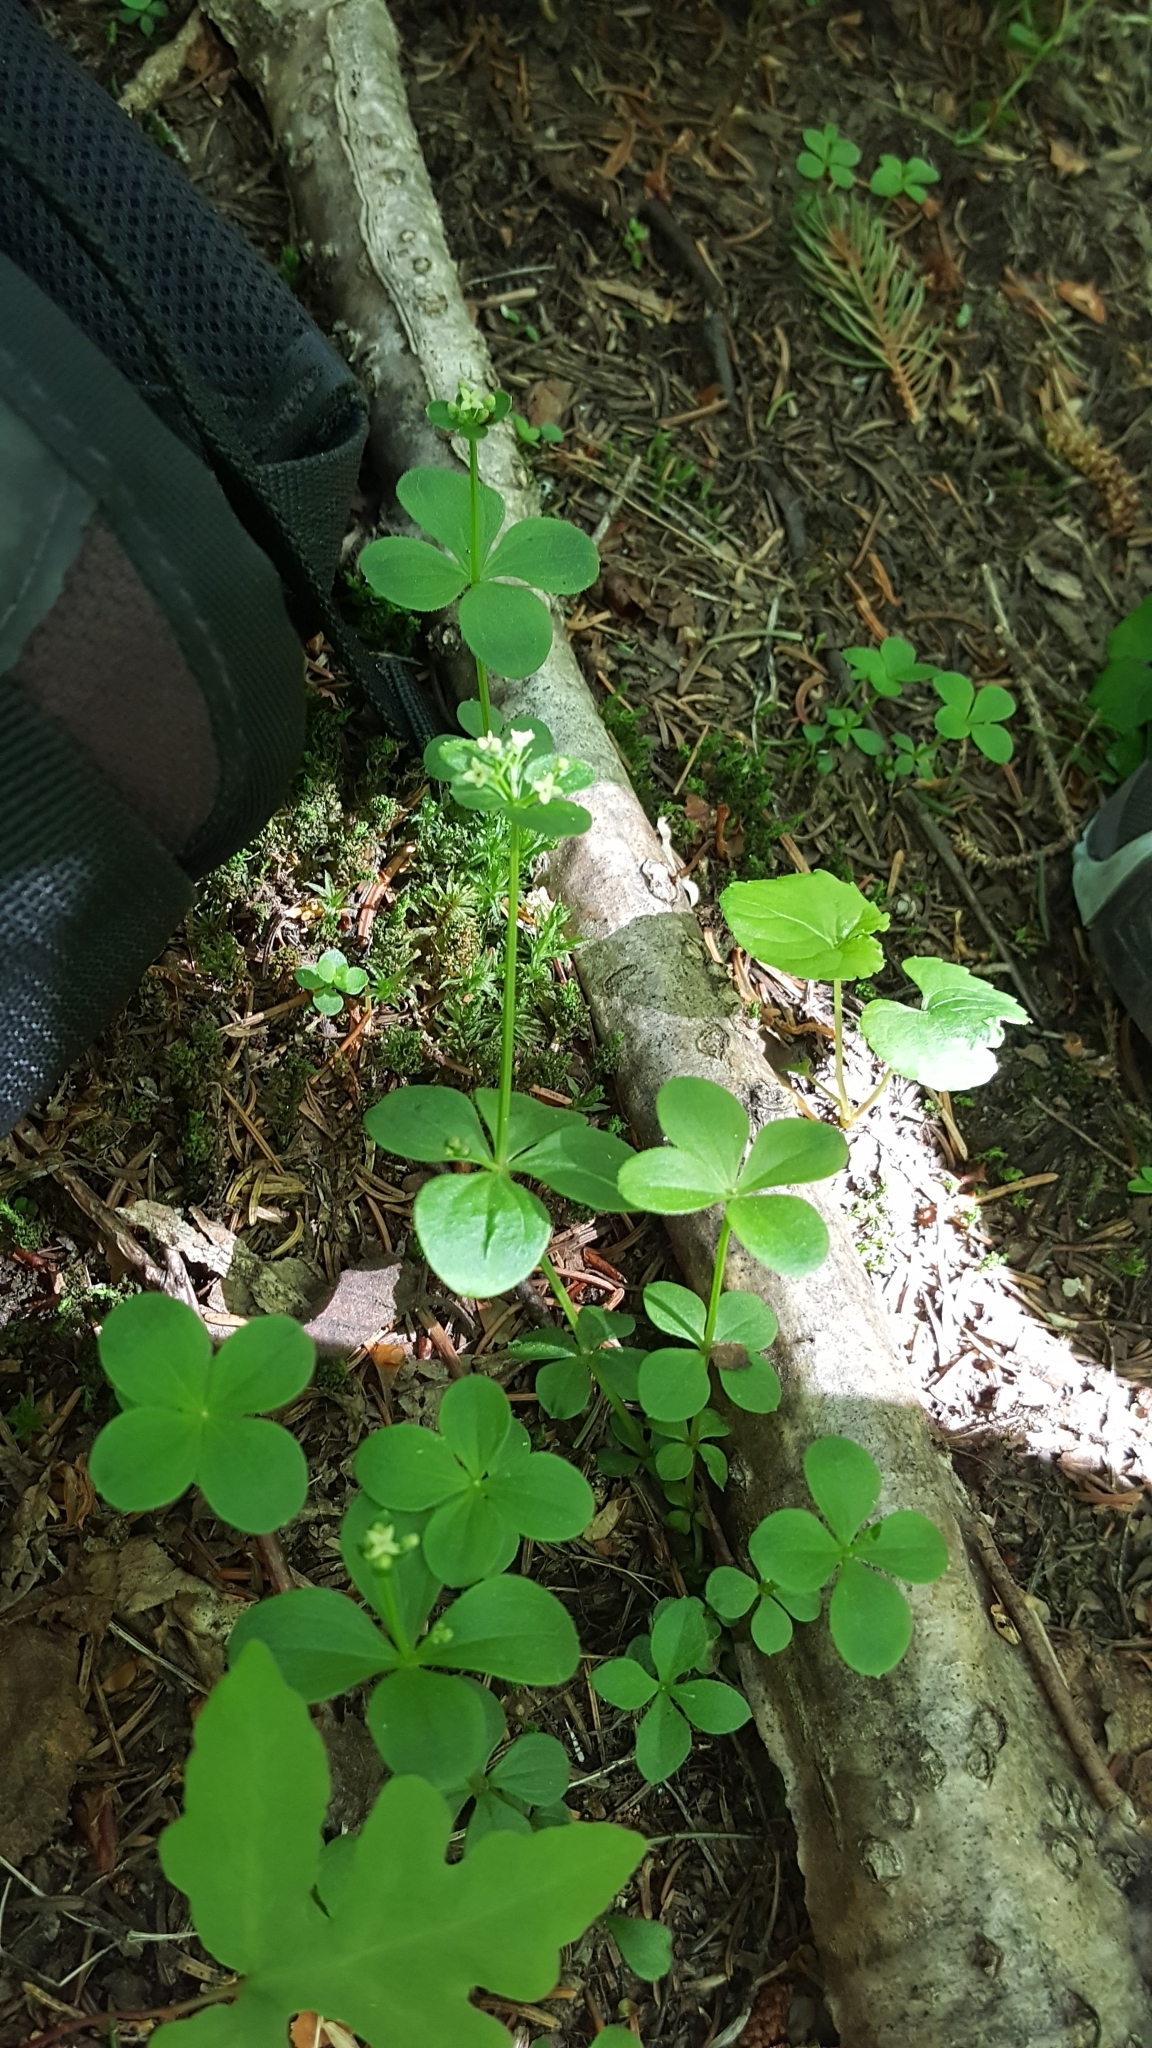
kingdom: Plantae
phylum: Tracheophyta
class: Magnoliopsida
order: Gentianales
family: Rubiaceae
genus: Galium
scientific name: Galium kamtschaticum
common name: Boreal bedstraw
